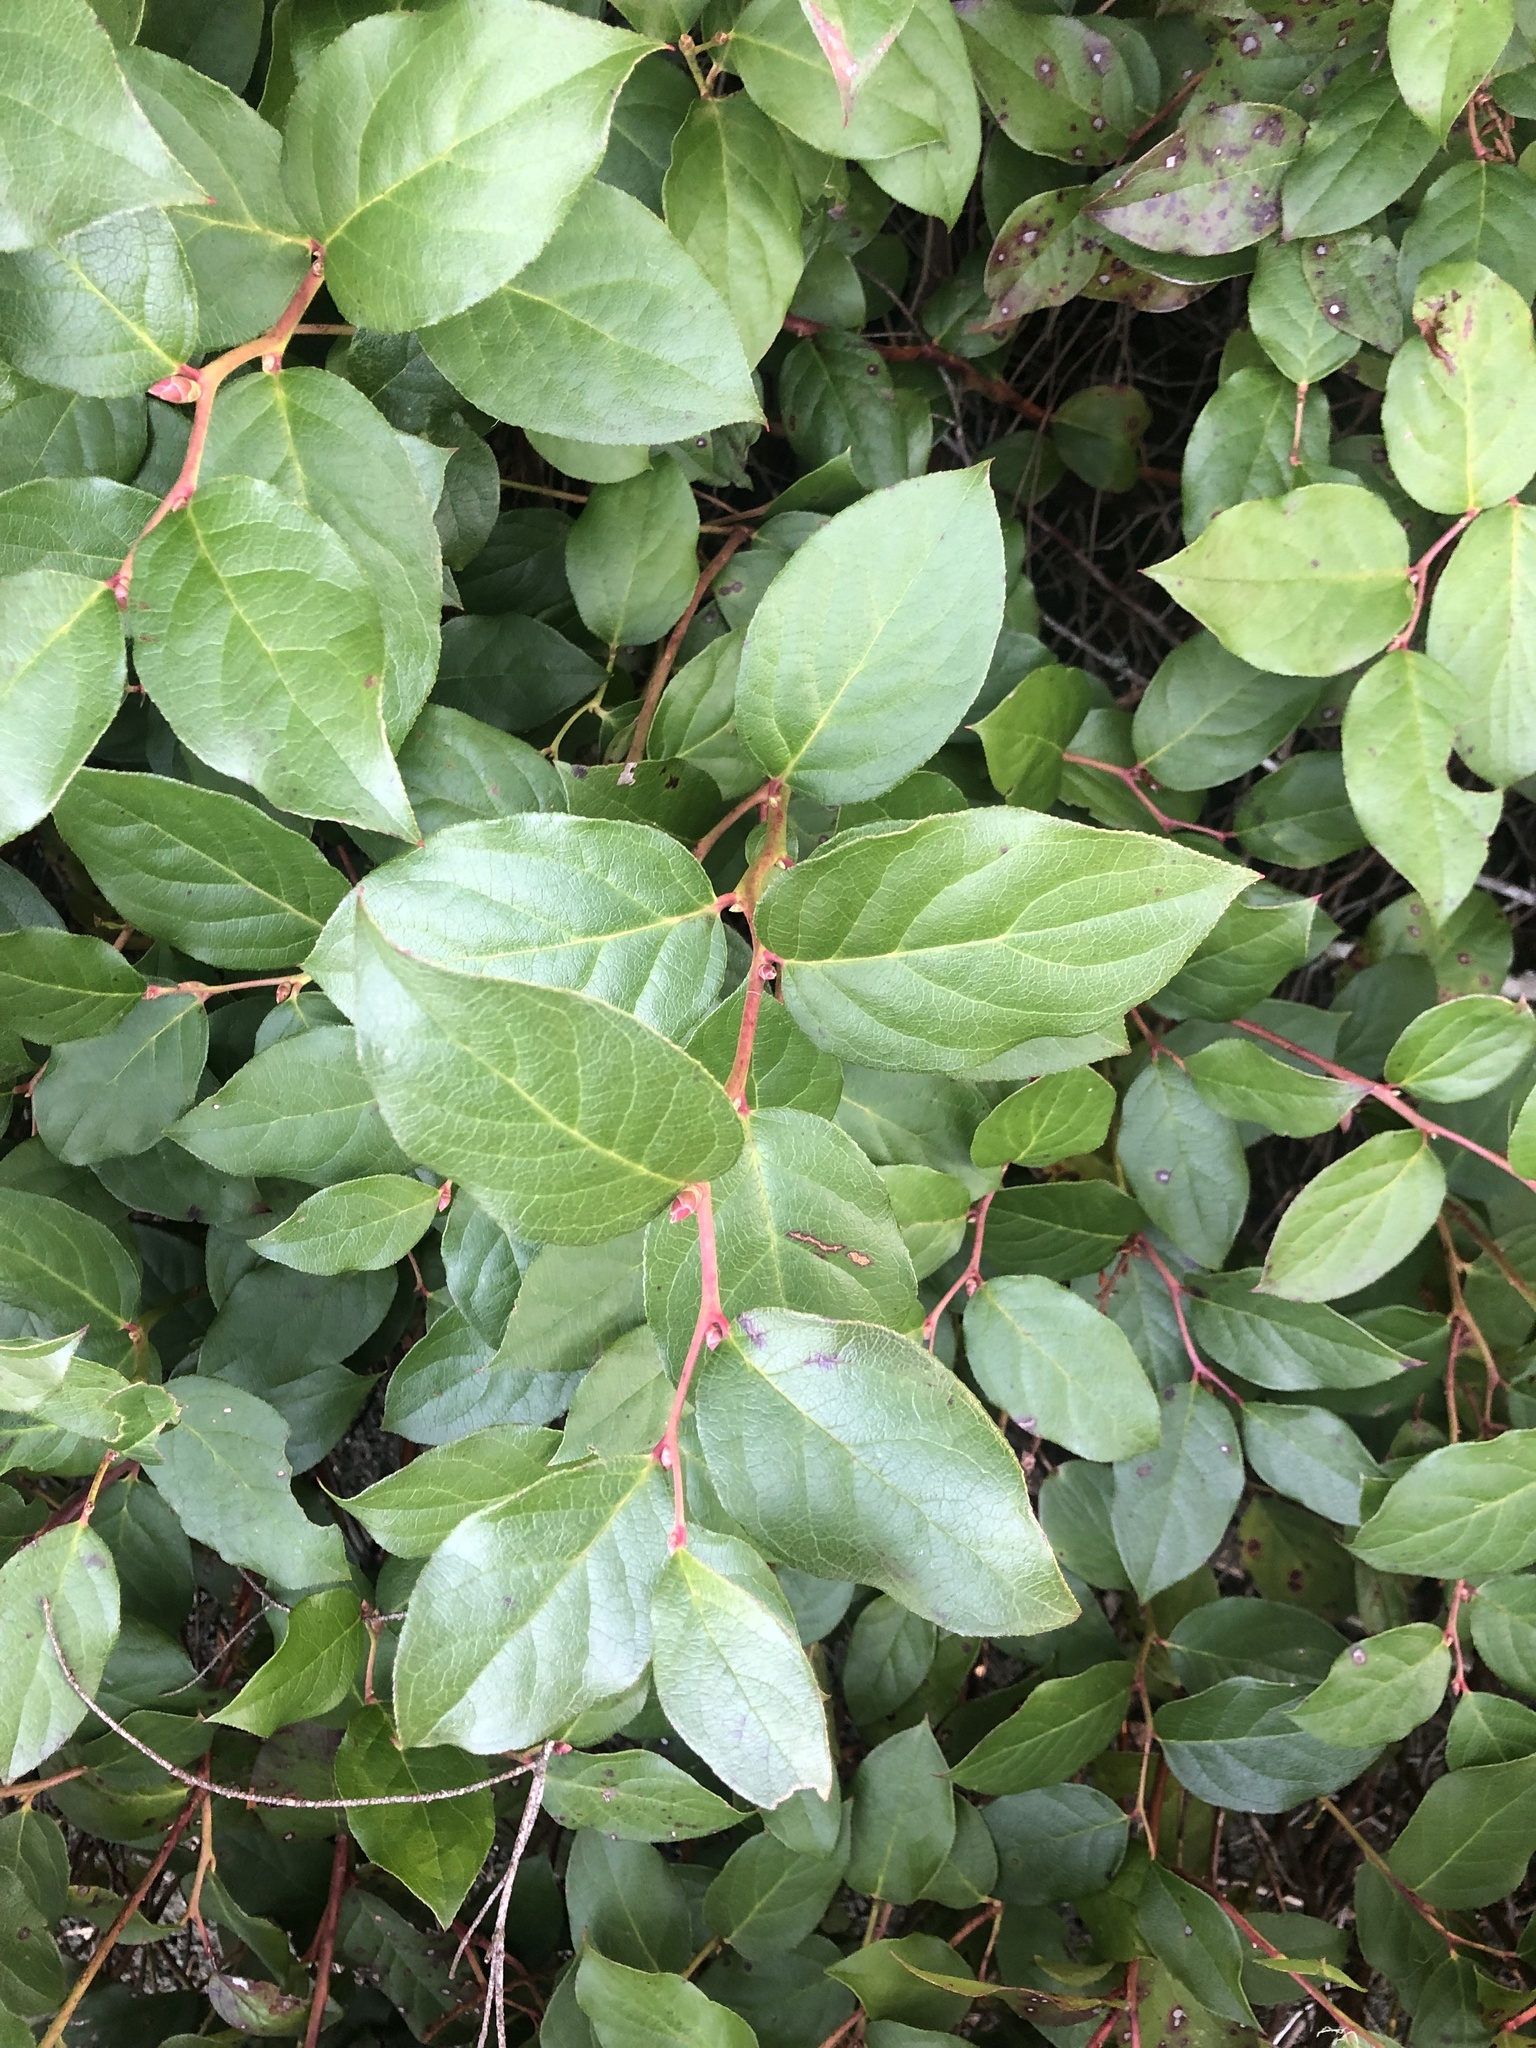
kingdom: Plantae
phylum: Tracheophyta
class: Magnoliopsida
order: Ericales
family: Ericaceae
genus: Gaultheria
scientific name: Gaultheria shallon
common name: Shallon
